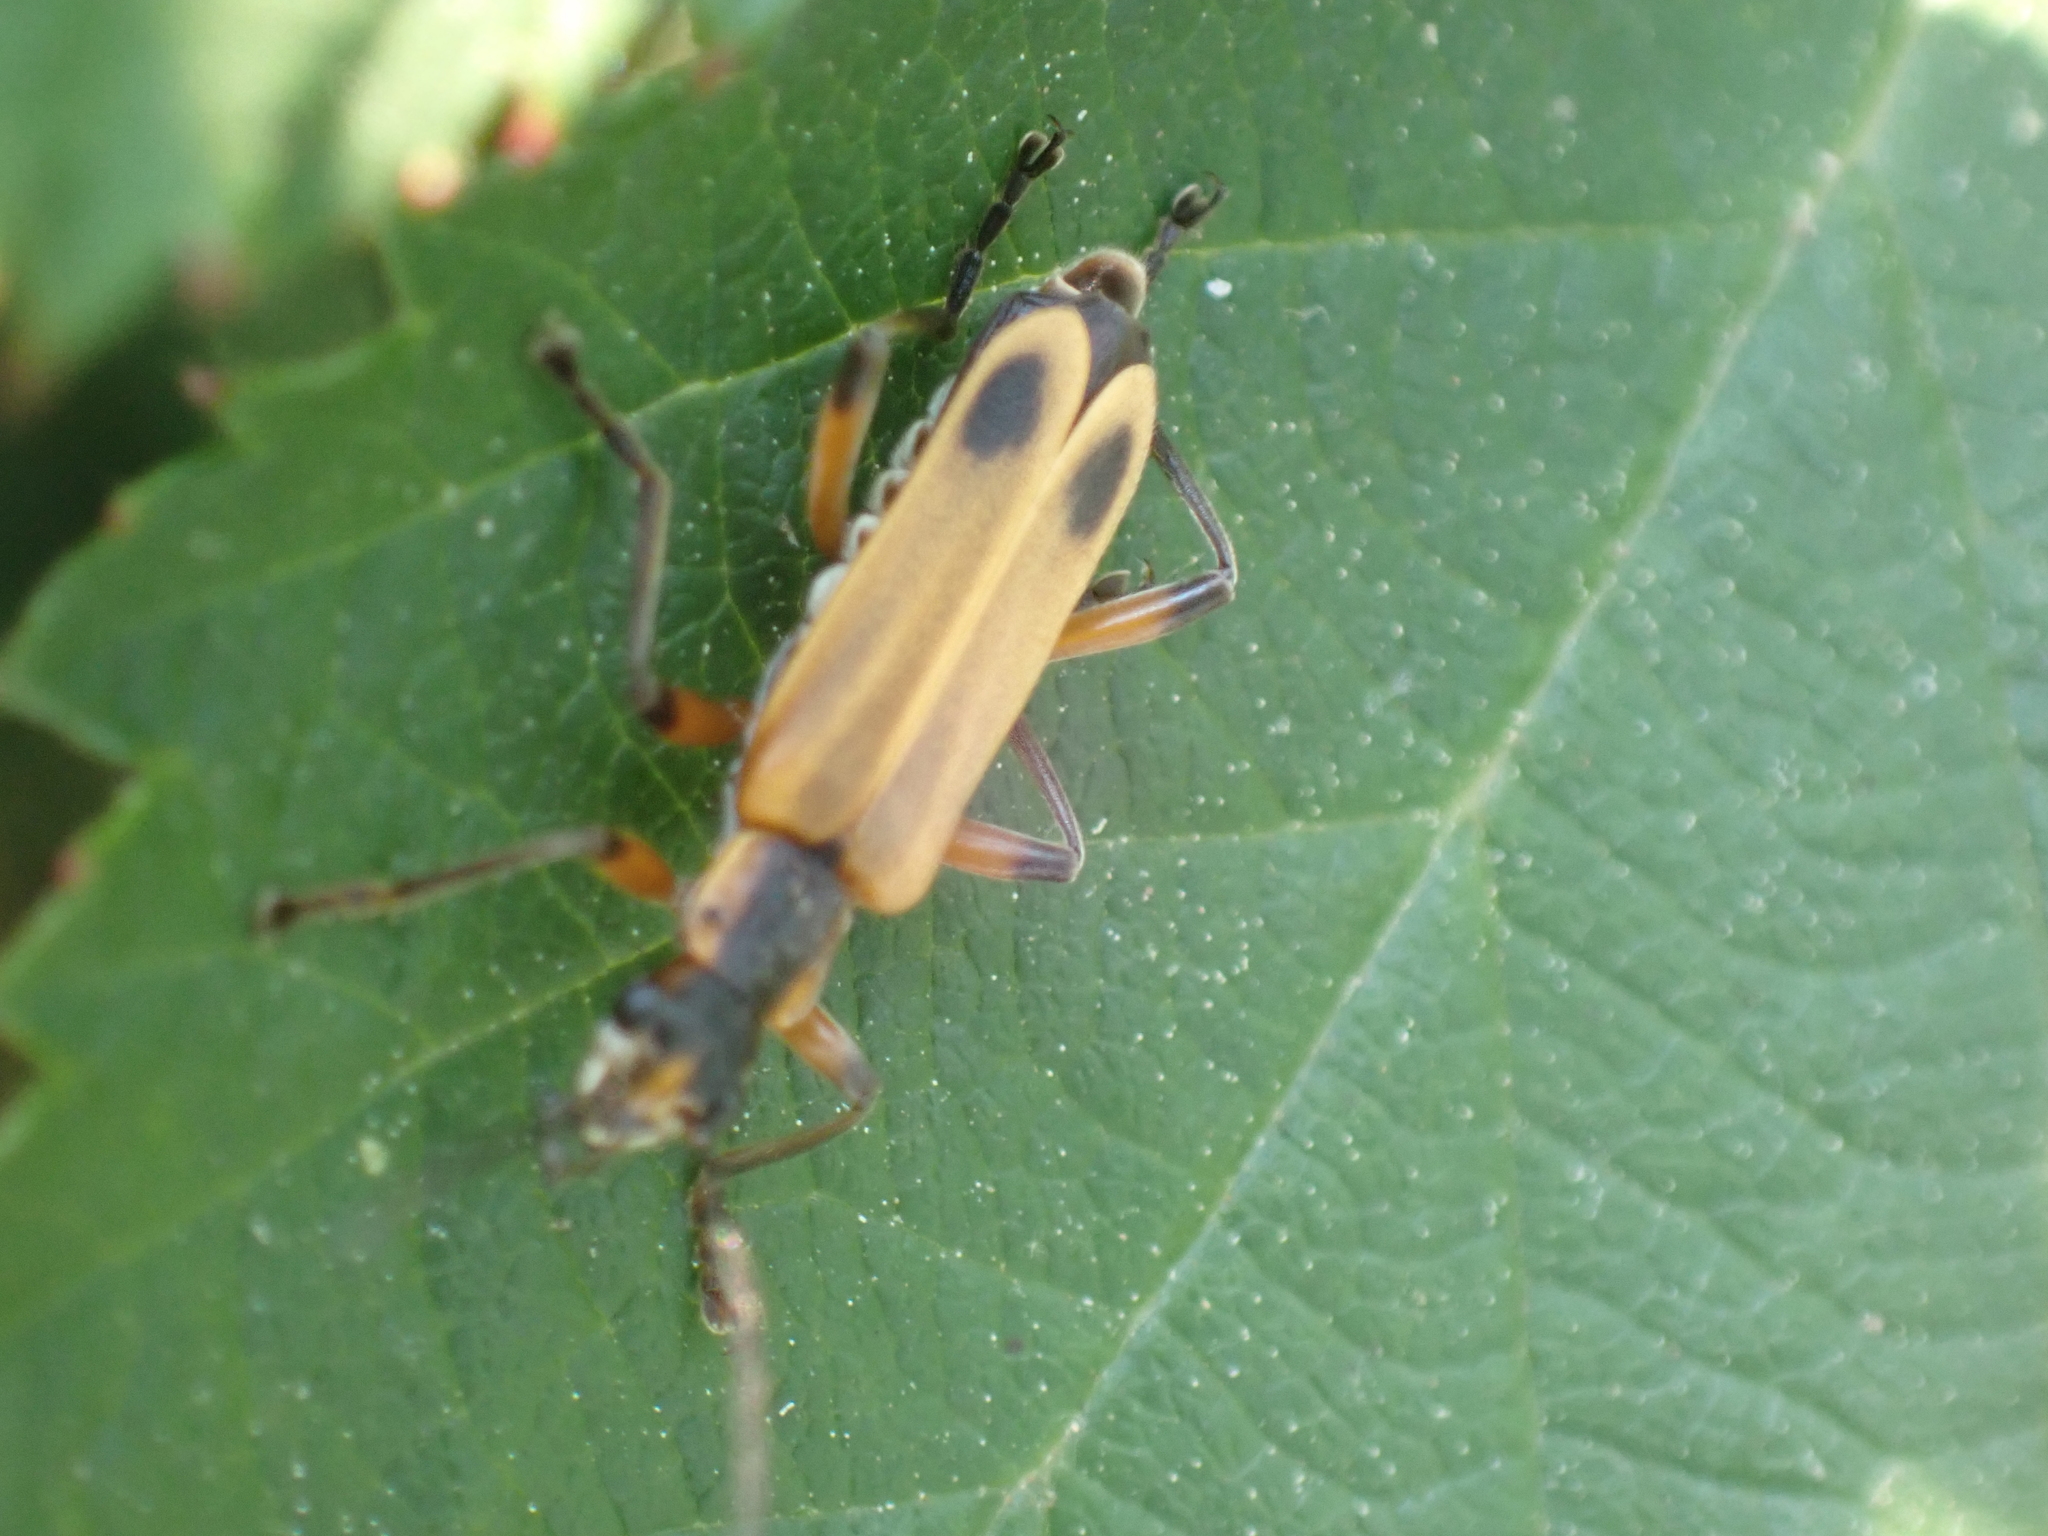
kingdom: Animalia
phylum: Arthropoda
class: Insecta
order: Coleoptera
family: Cantharidae
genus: Chauliognathus
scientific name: Chauliognathus marginatus
